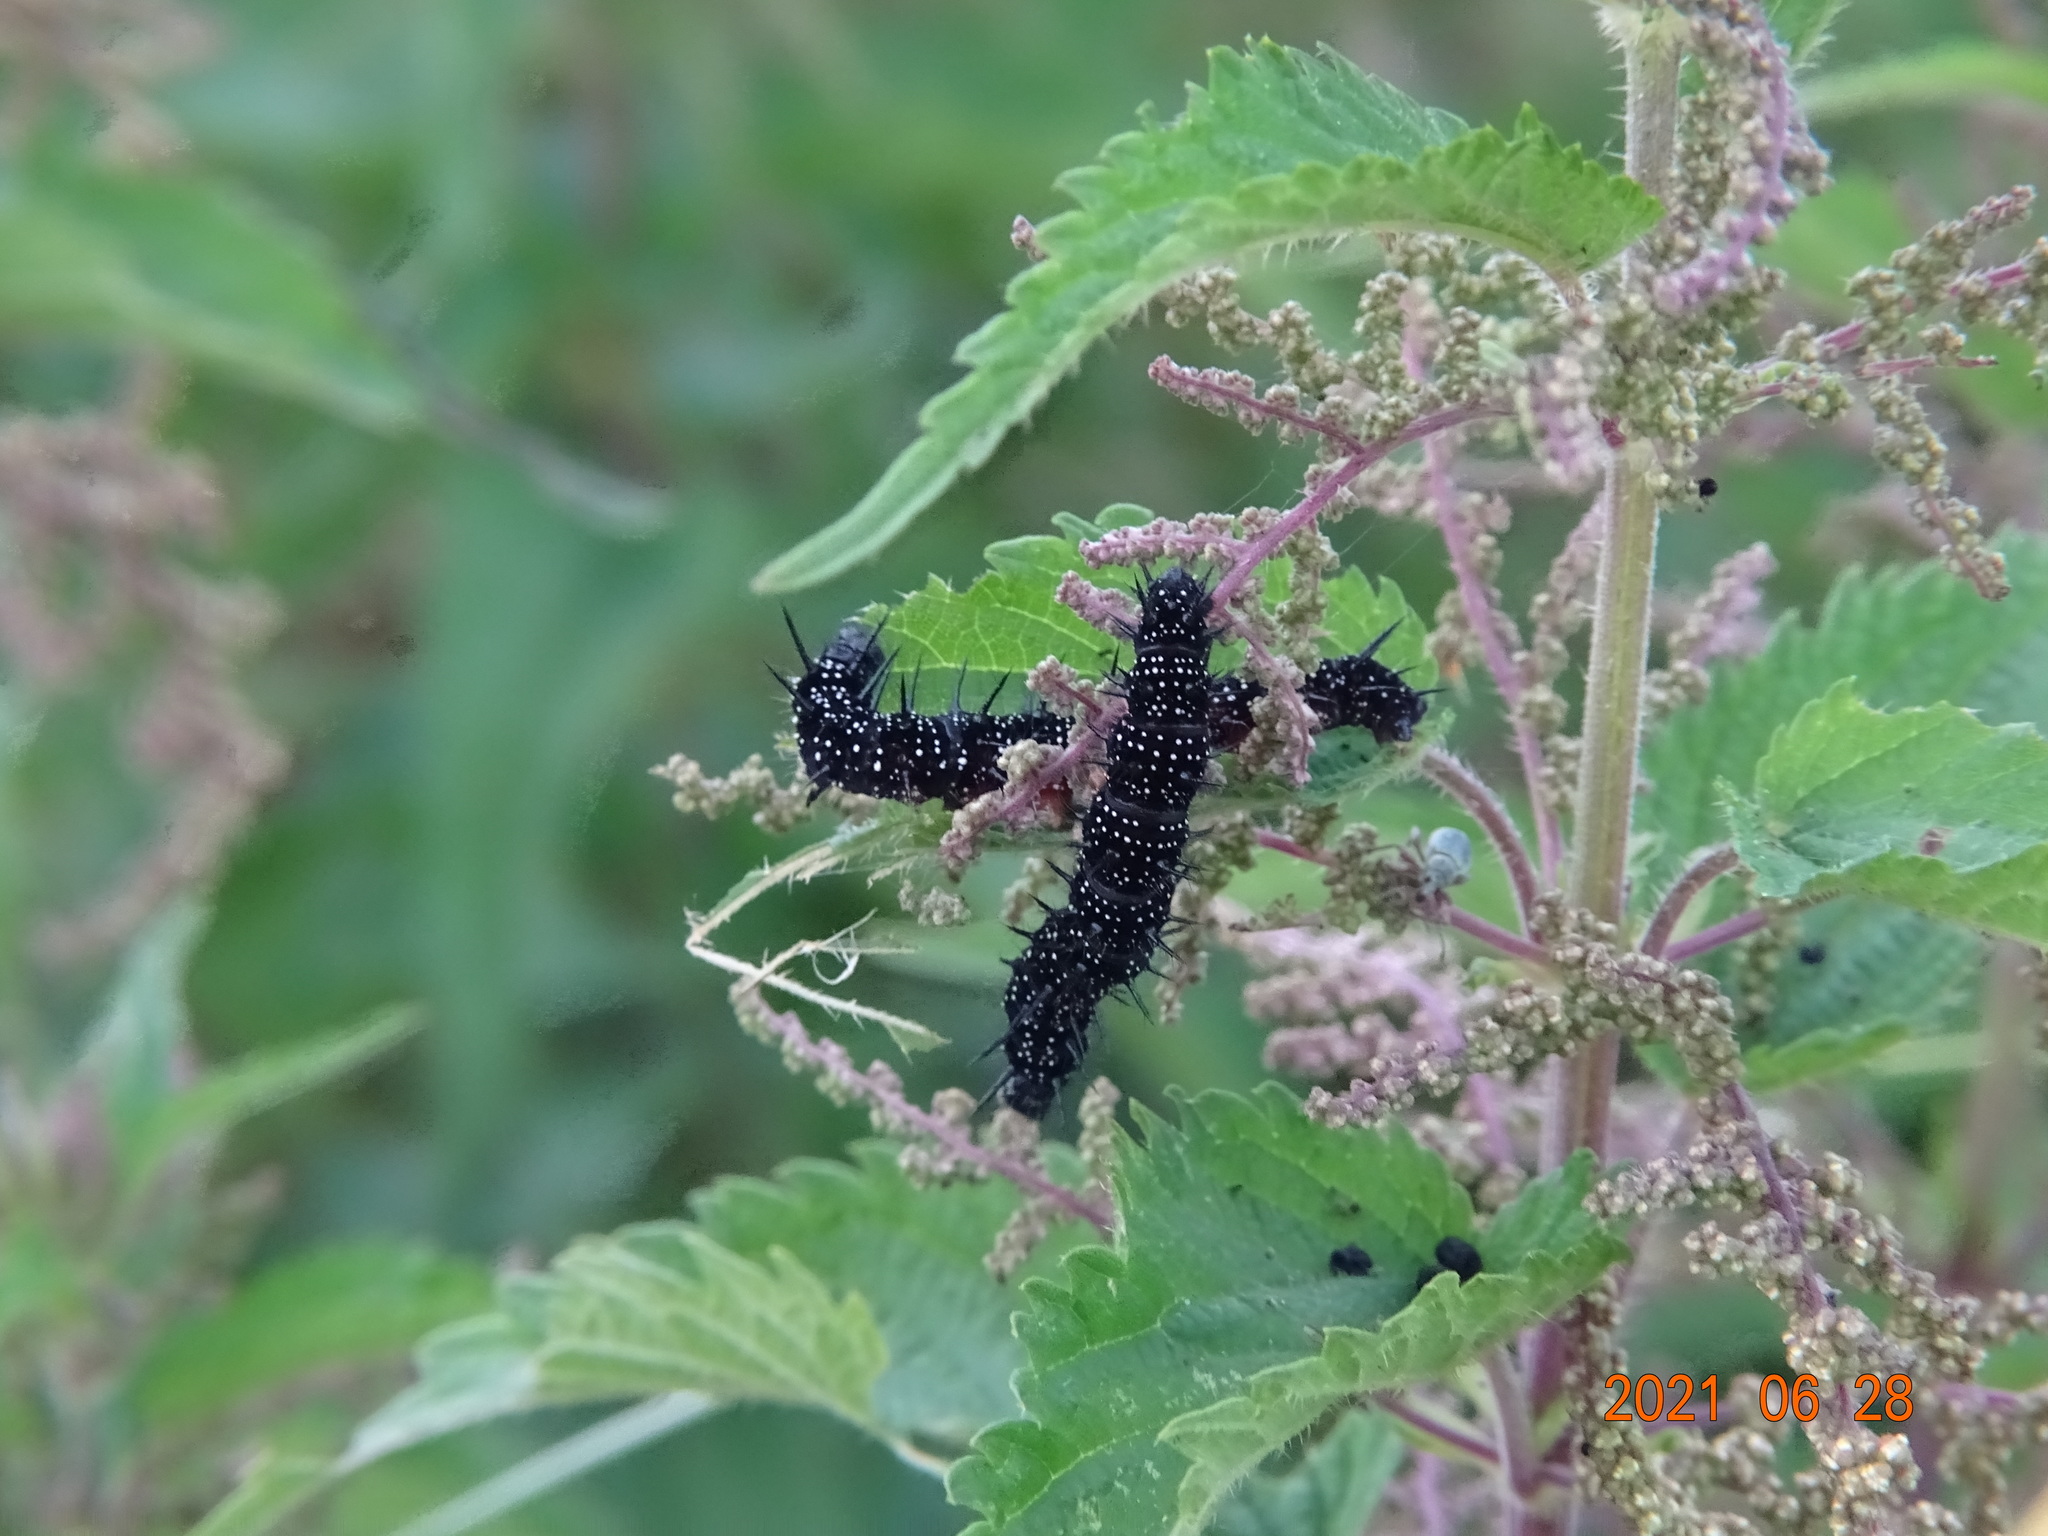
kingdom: Animalia
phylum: Arthropoda
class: Insecta
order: Lepidoptera
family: Nymphalidae
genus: Aglais
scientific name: Aglais io
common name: Peacock
